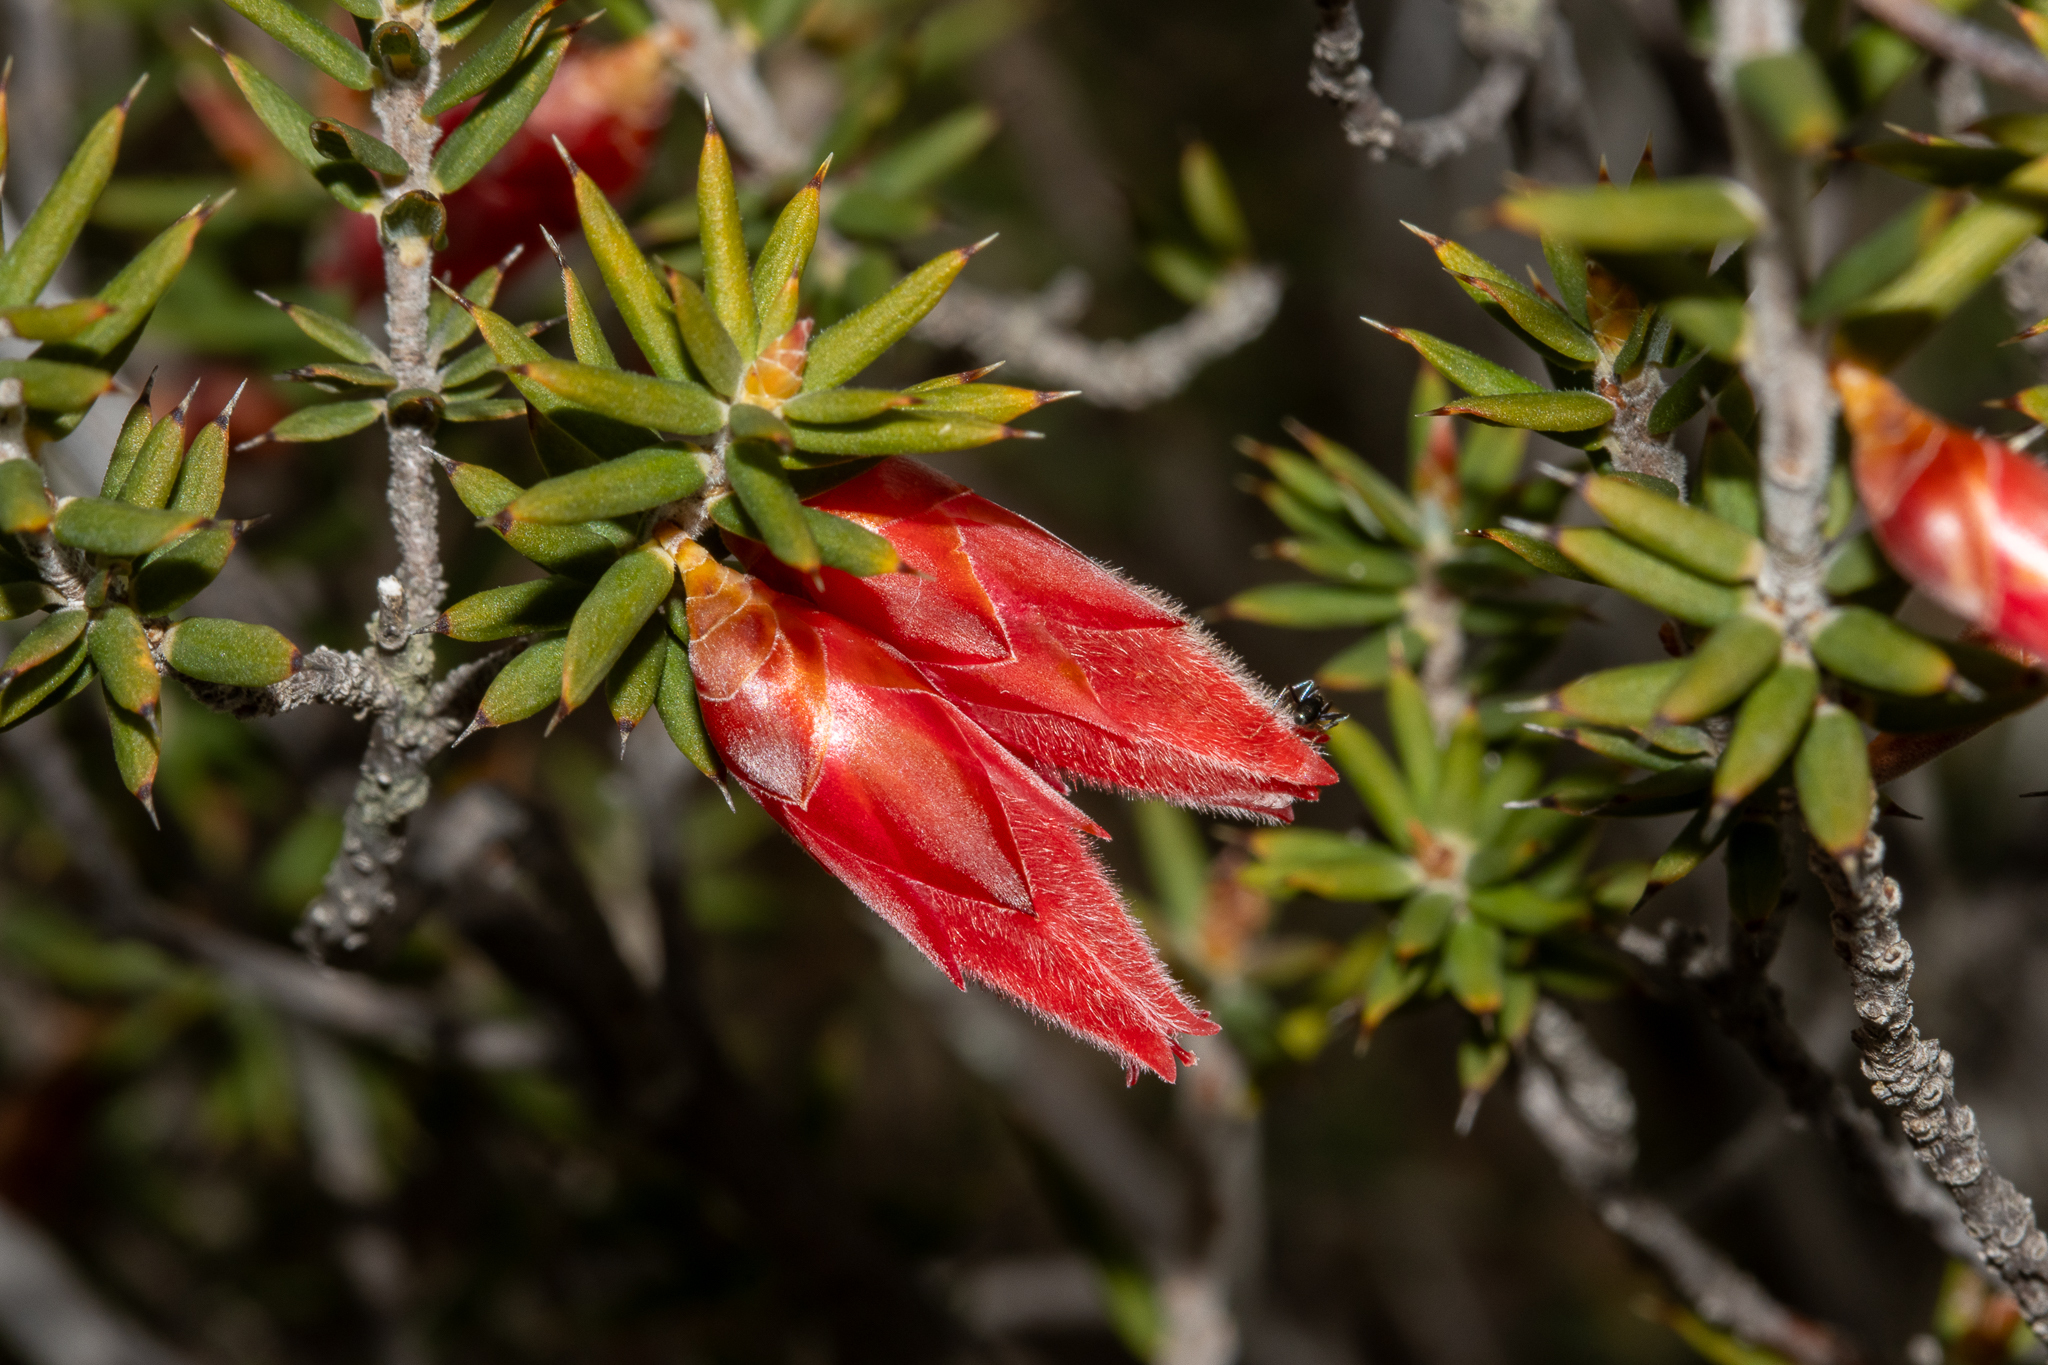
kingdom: Plantae
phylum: Tracheophyta
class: Magnoliopsida
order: Ericales
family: Ericaceae
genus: Stenanthera
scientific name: Stenanthera conostephioides
